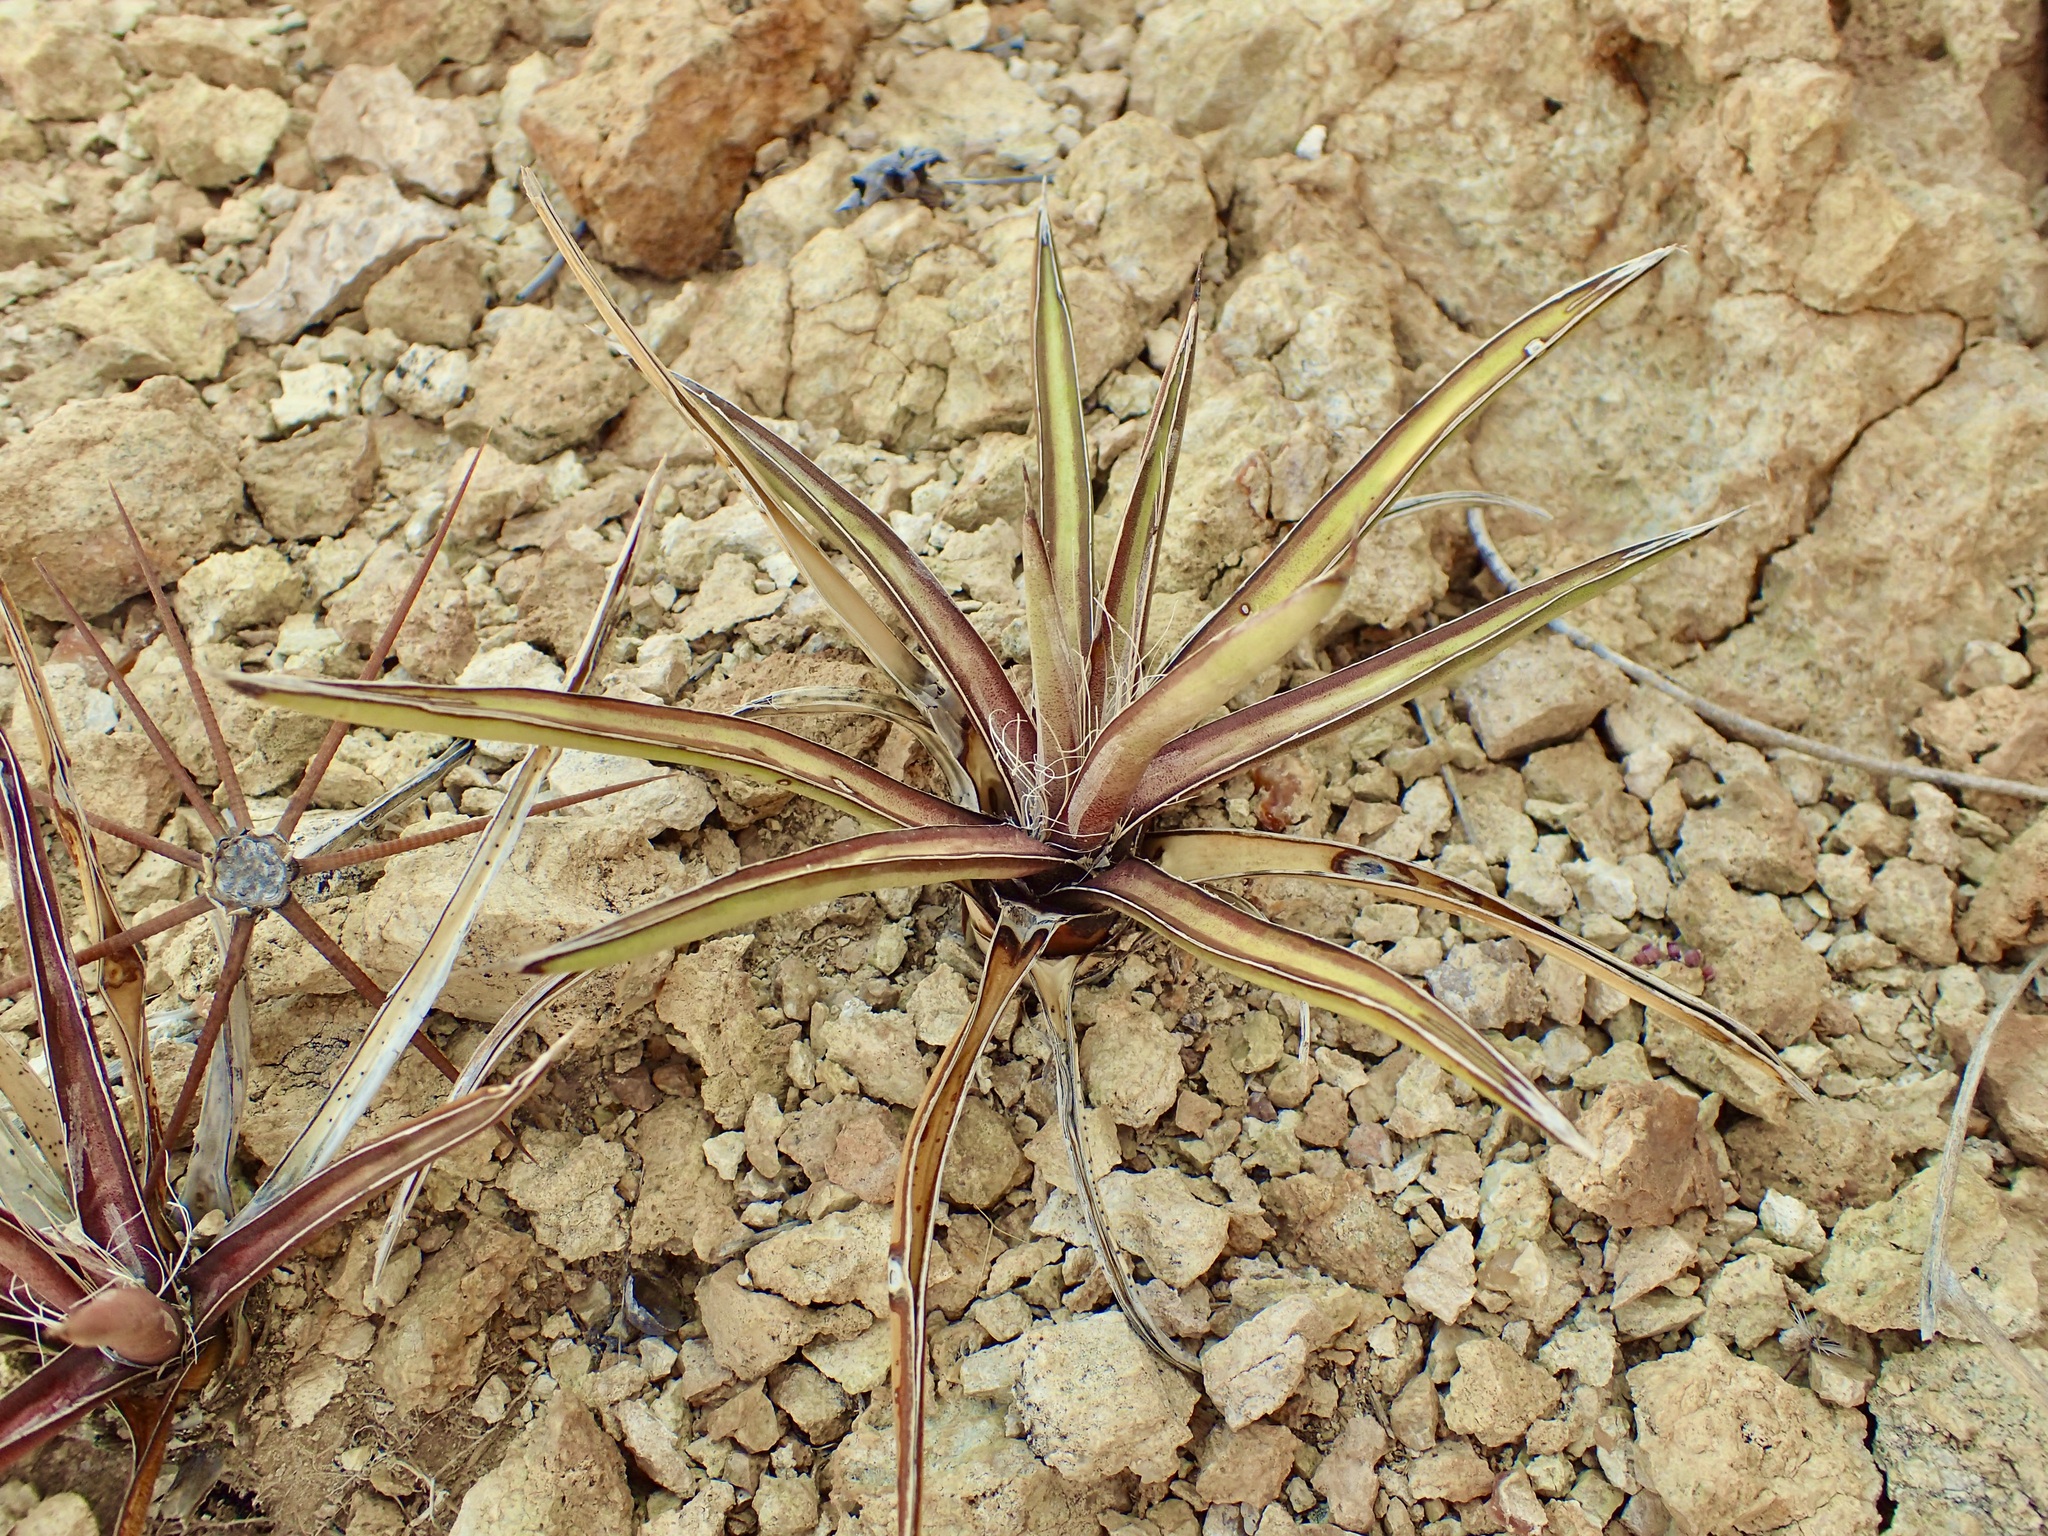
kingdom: Plantae
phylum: Tracheophyta
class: Liliopsida
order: Asparagales
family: Asparagaceae
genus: Agave
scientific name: Agave felgeri
